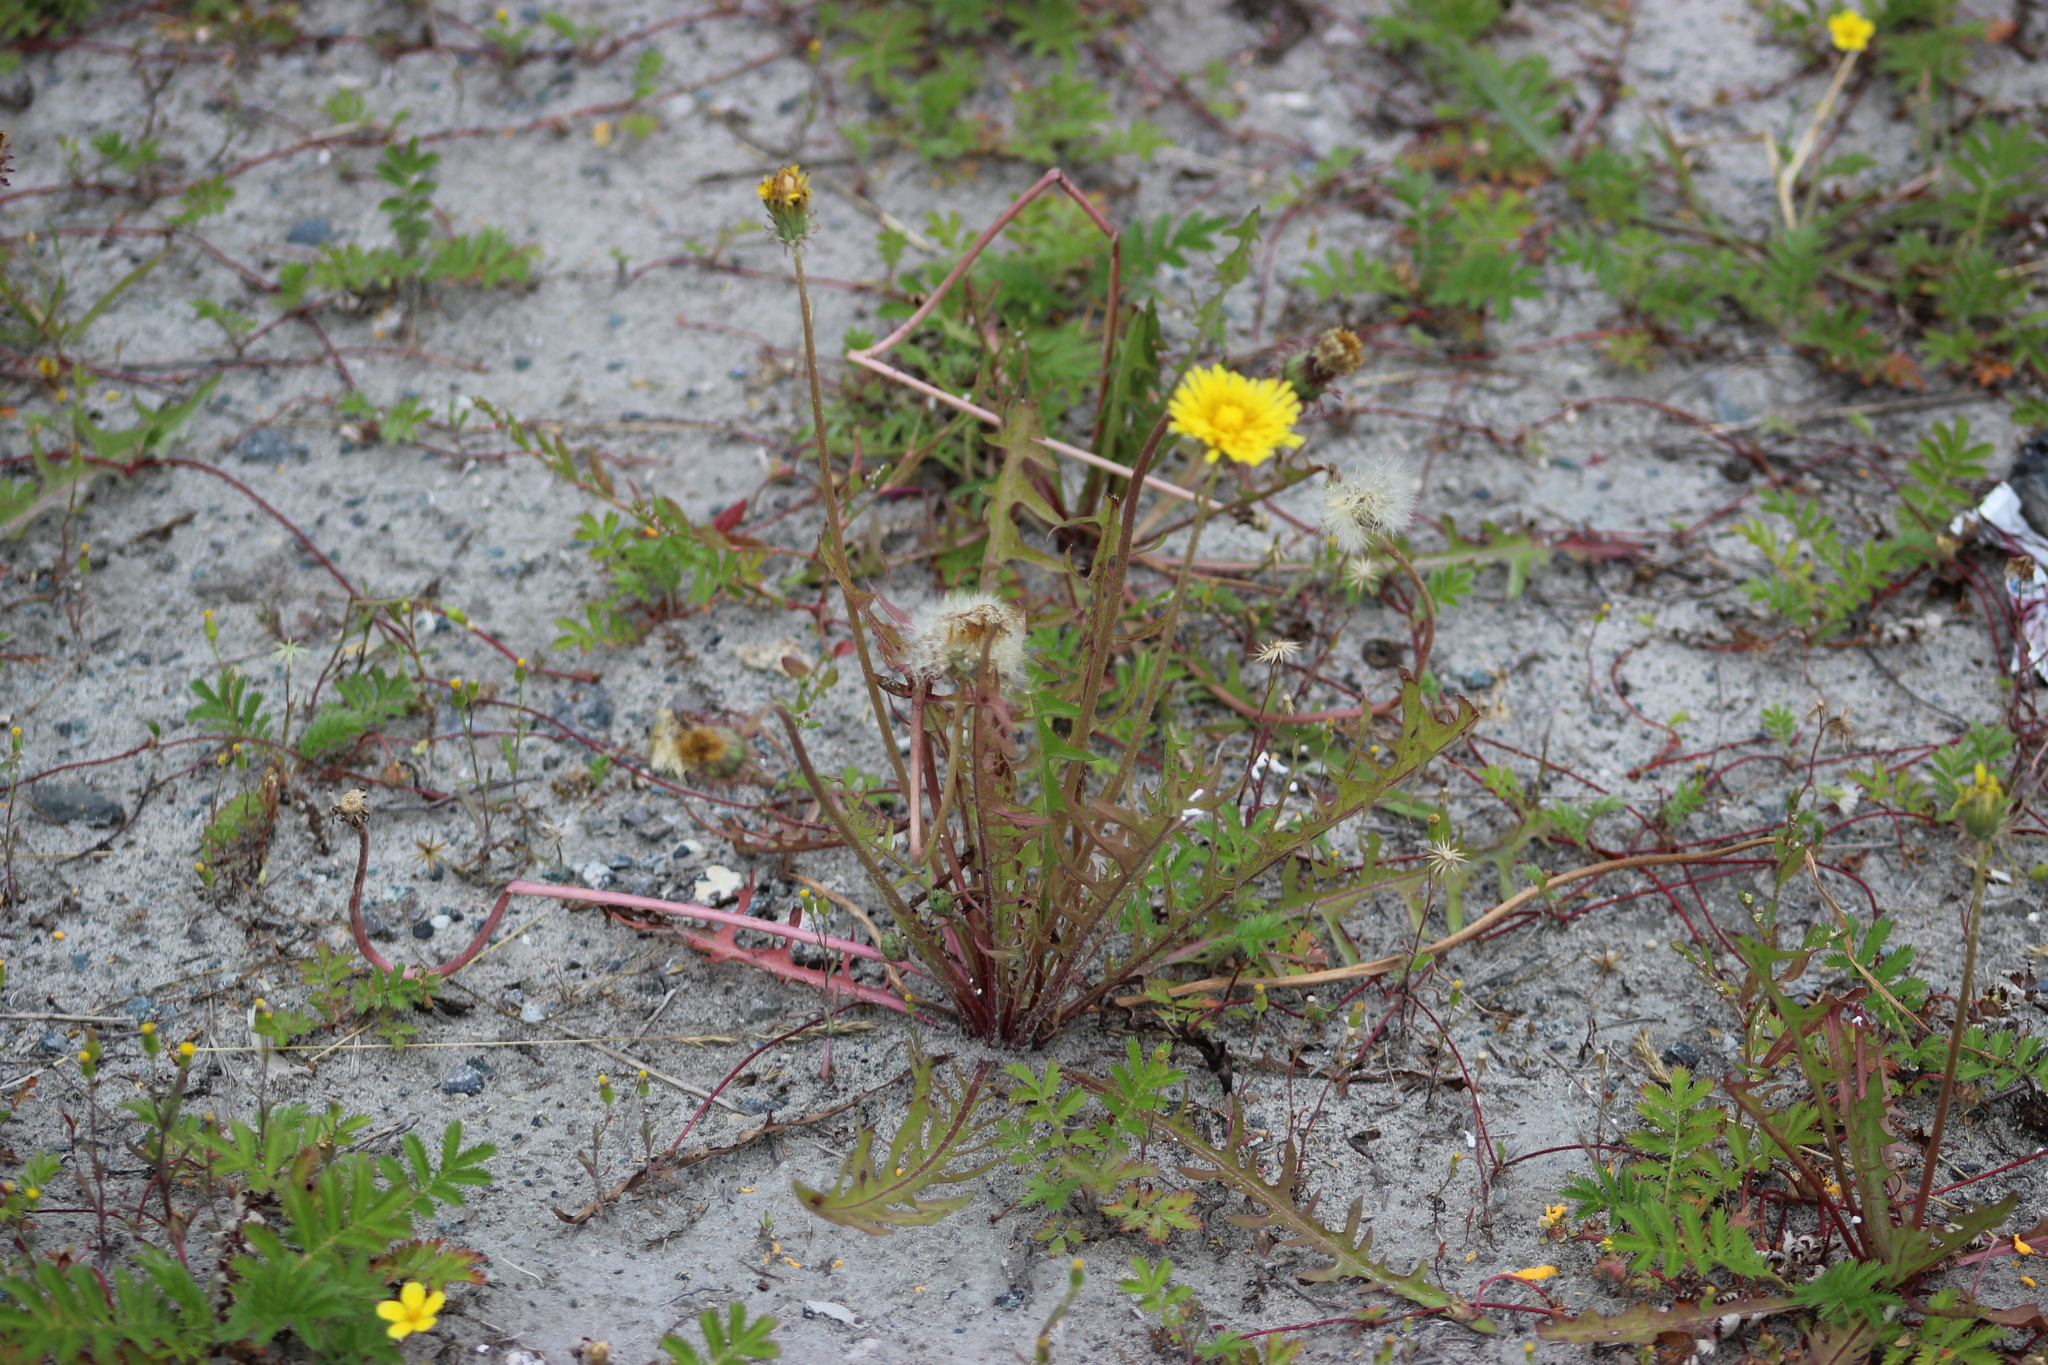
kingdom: Plantae
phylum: Tracheophyta
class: Magnoliopsida
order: Asterales
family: Asteraceae
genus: Taraxacum
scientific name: Taraxacum scariosum
